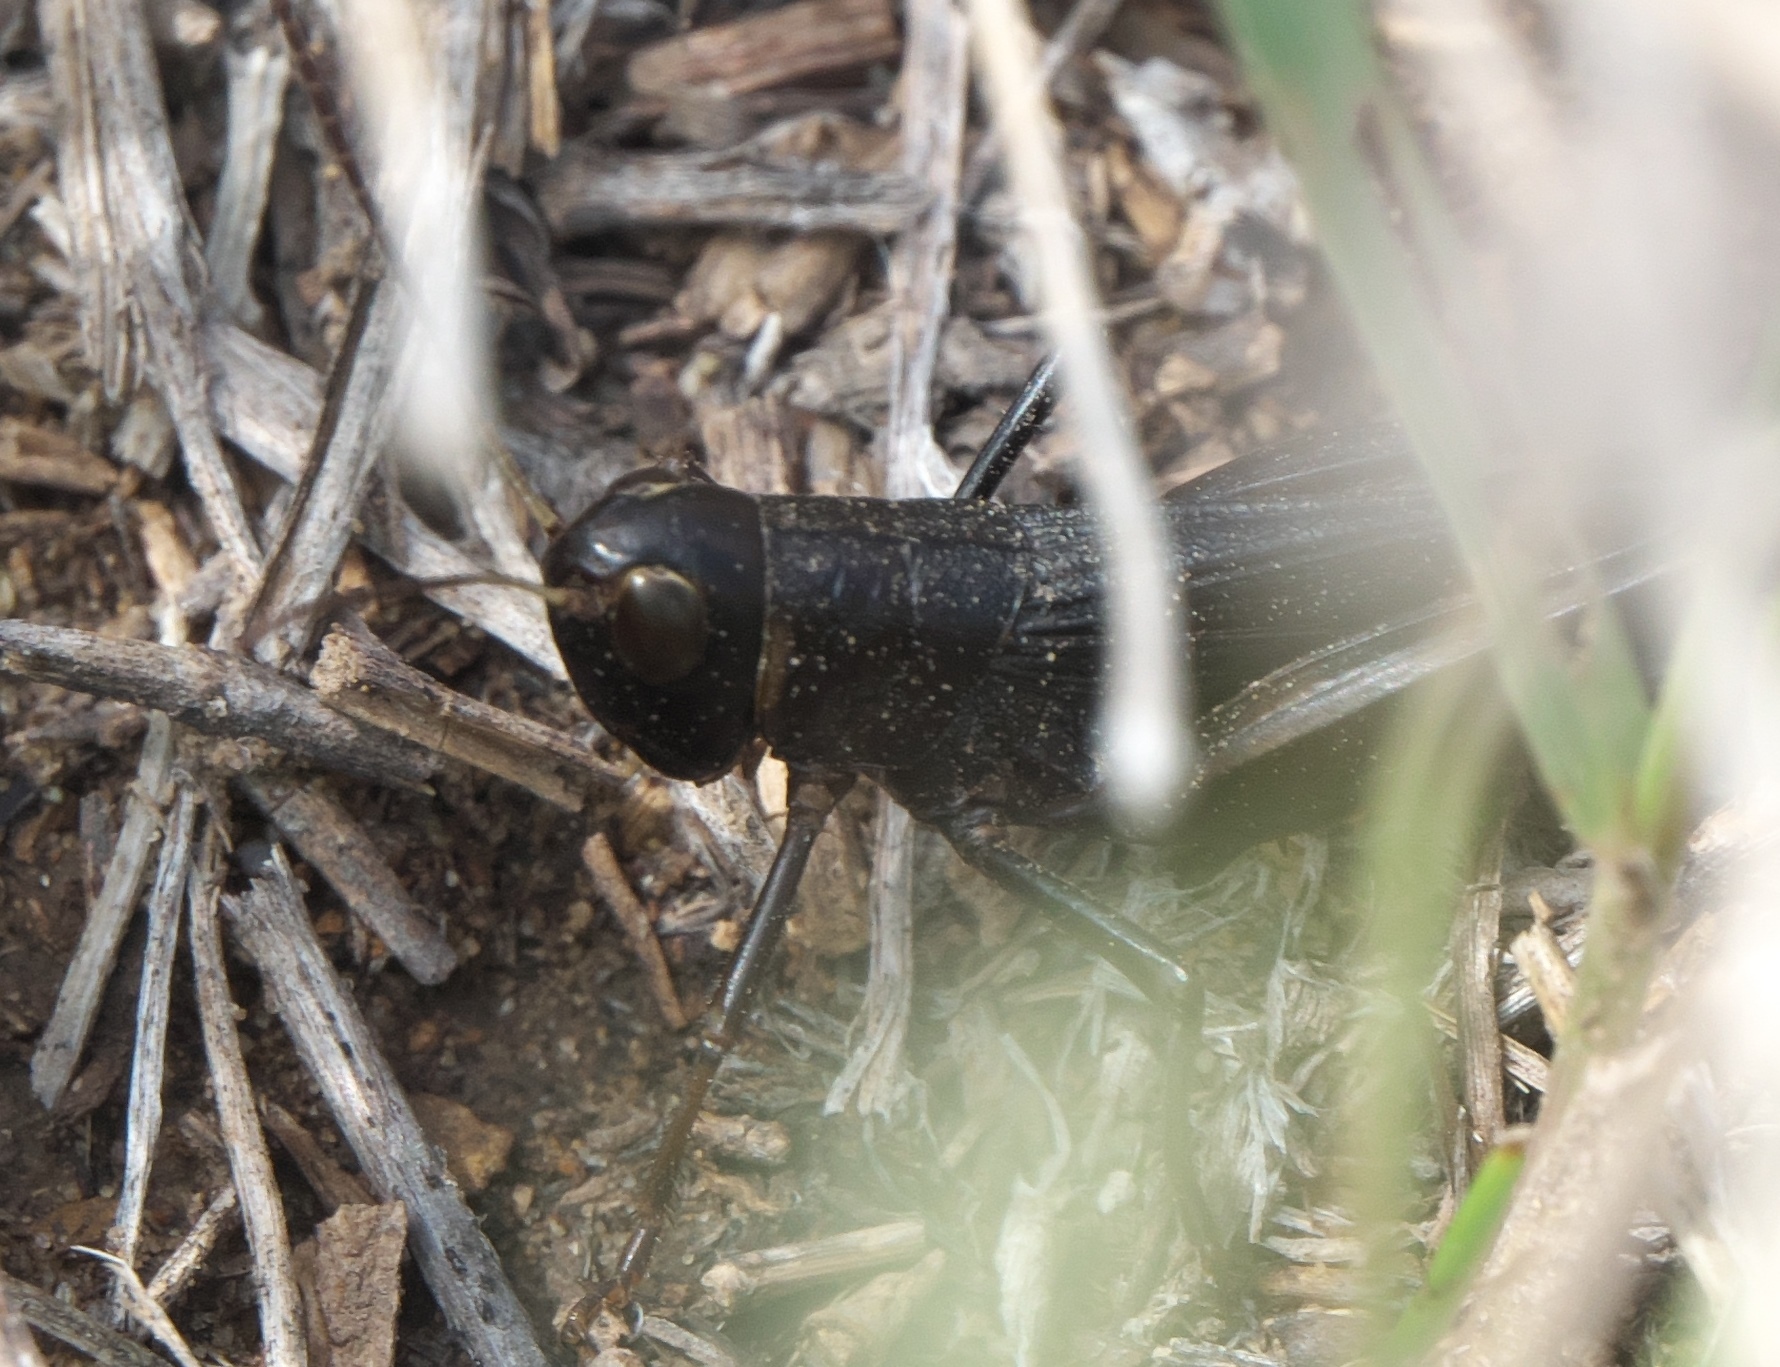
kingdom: Animalia
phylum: Arthropoda
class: Insecta
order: Orthoptera
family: Acrididae
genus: Boopedon
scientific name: Boopedon nubilum
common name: Ebony grasshopper
